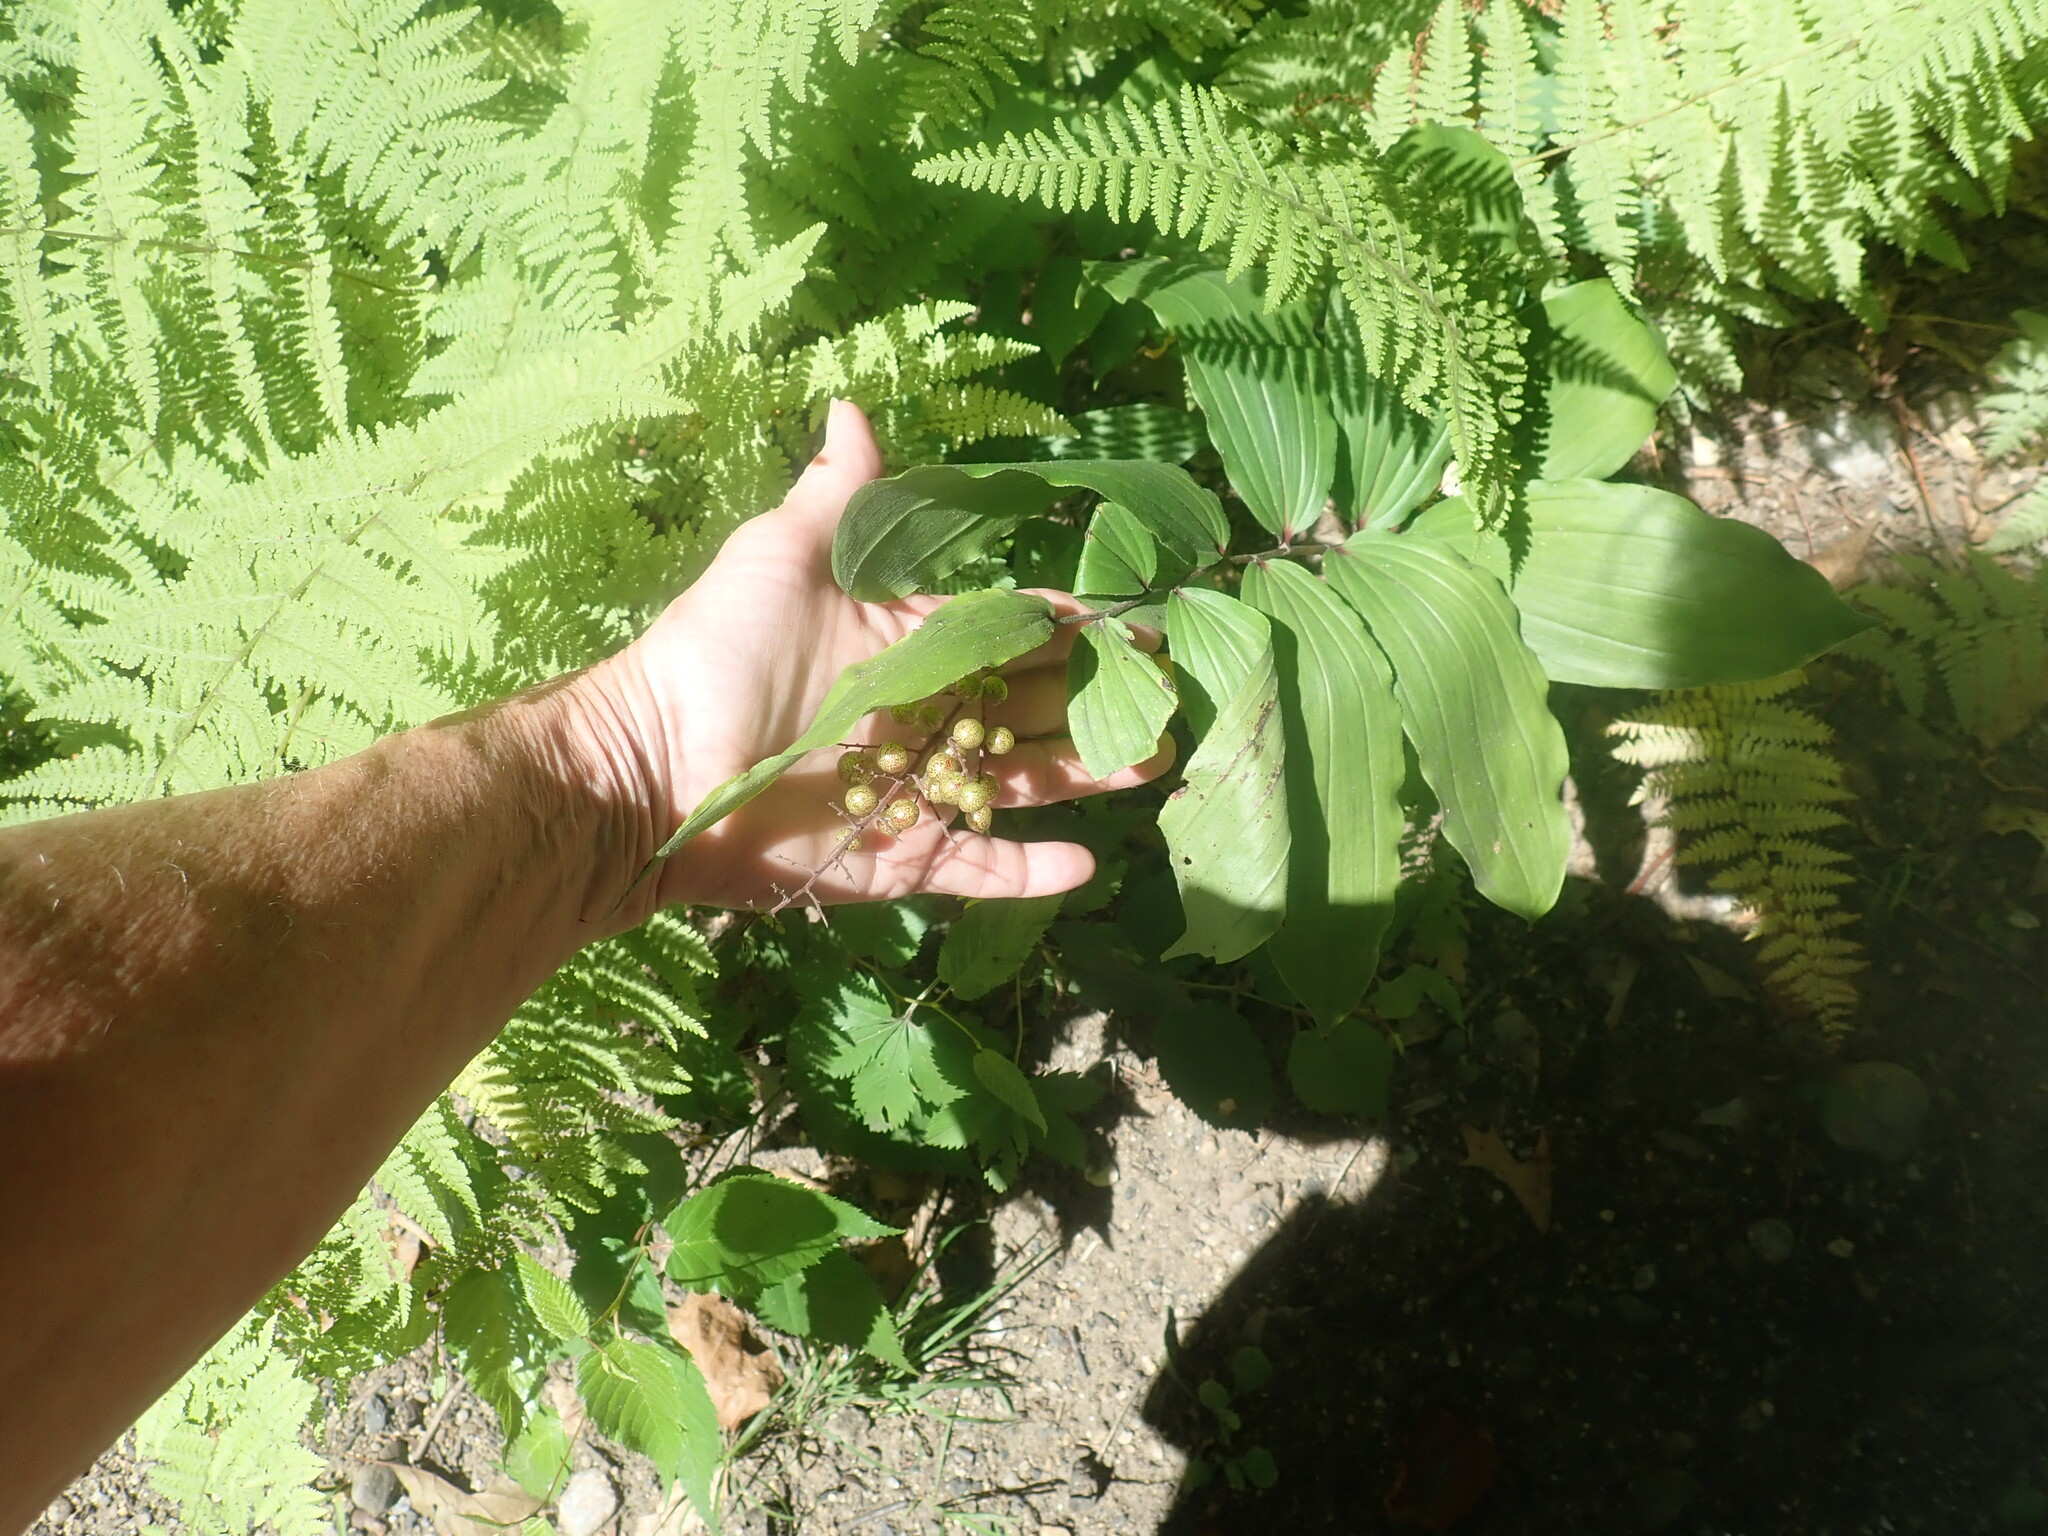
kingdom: Plantae
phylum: Tracheophyta
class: Liliopsida
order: Asparagales
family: Asparagaceae
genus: Maianthemum
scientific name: Maianthemum racemosum
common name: False spikenard
